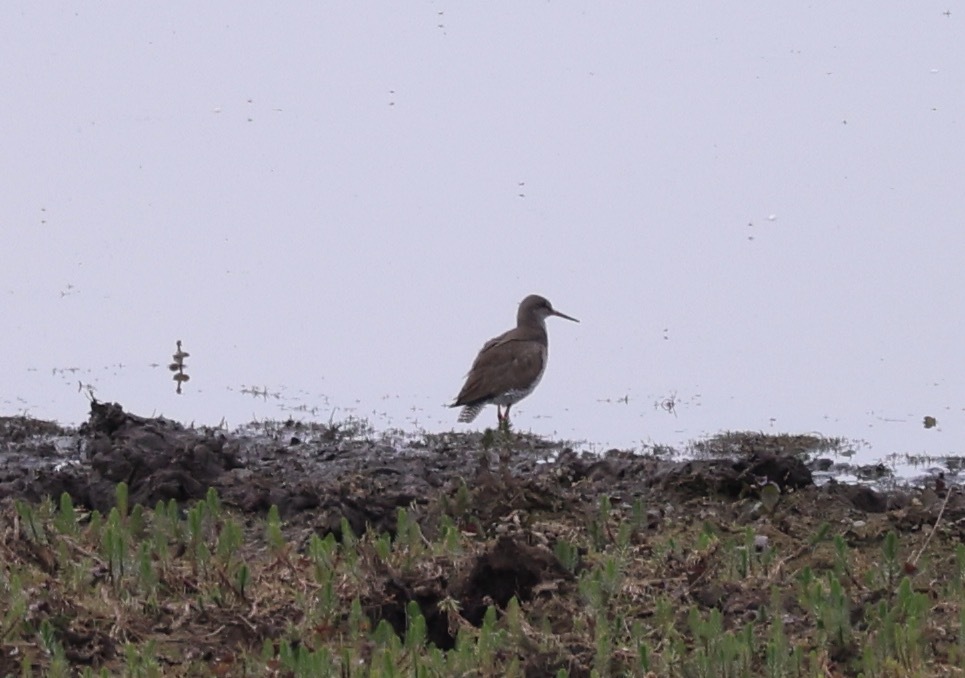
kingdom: Animalia
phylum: Chordata
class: Aves
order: Charadriiformes
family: Scolopacidae
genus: Tringa
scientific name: Tringa totanus
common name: Common redshank
